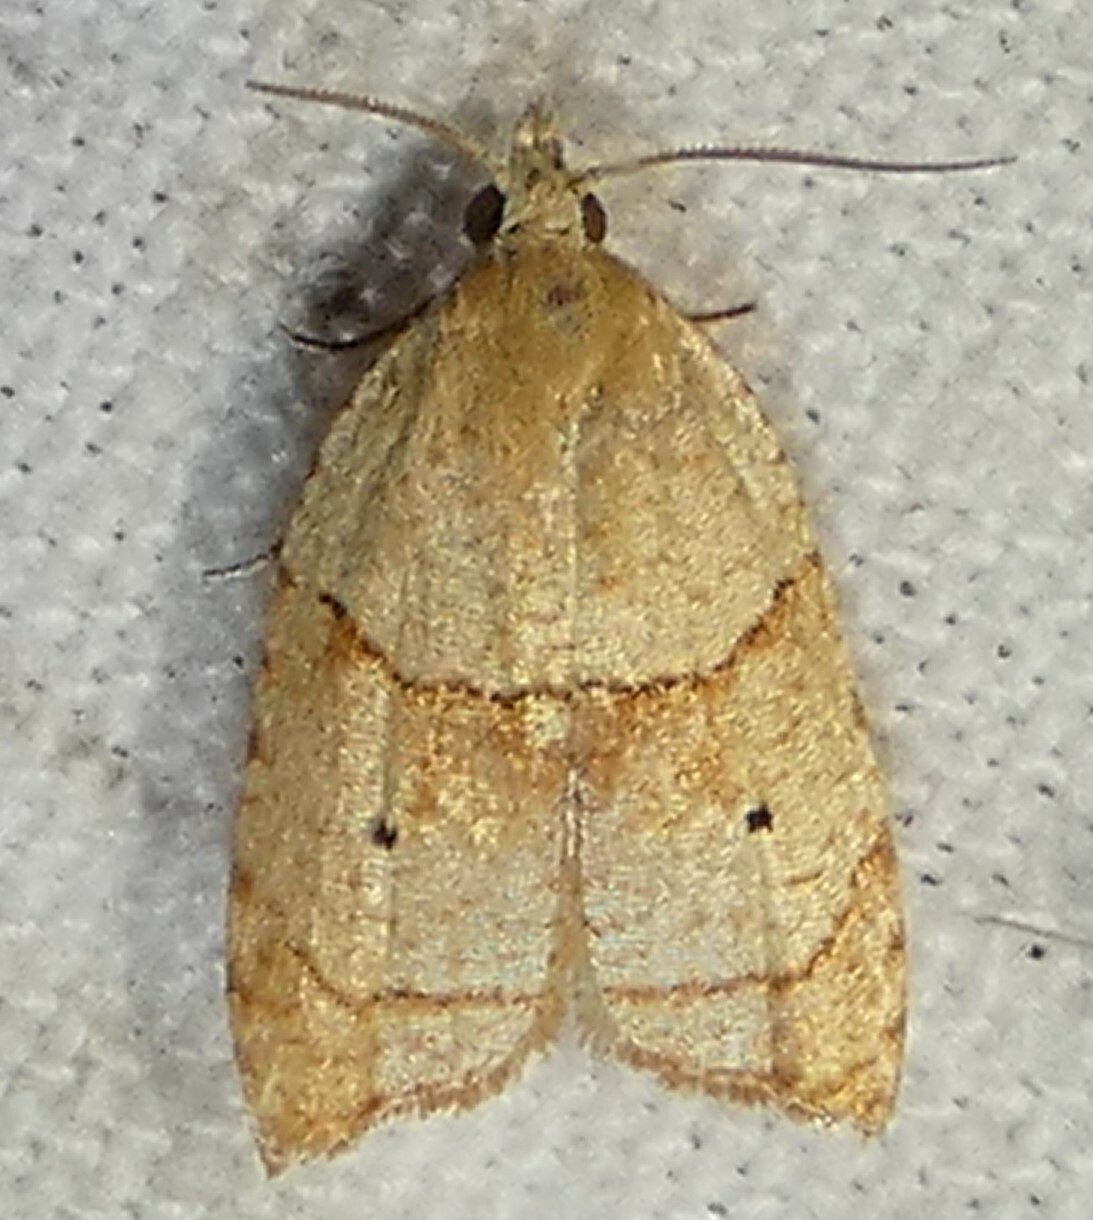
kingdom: Animalia
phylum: Arthropoda
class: Insecta
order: Lepidoptera
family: Tortricidae
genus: Coelostathma
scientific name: Coelostathma discopunctana
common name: Batman moth
